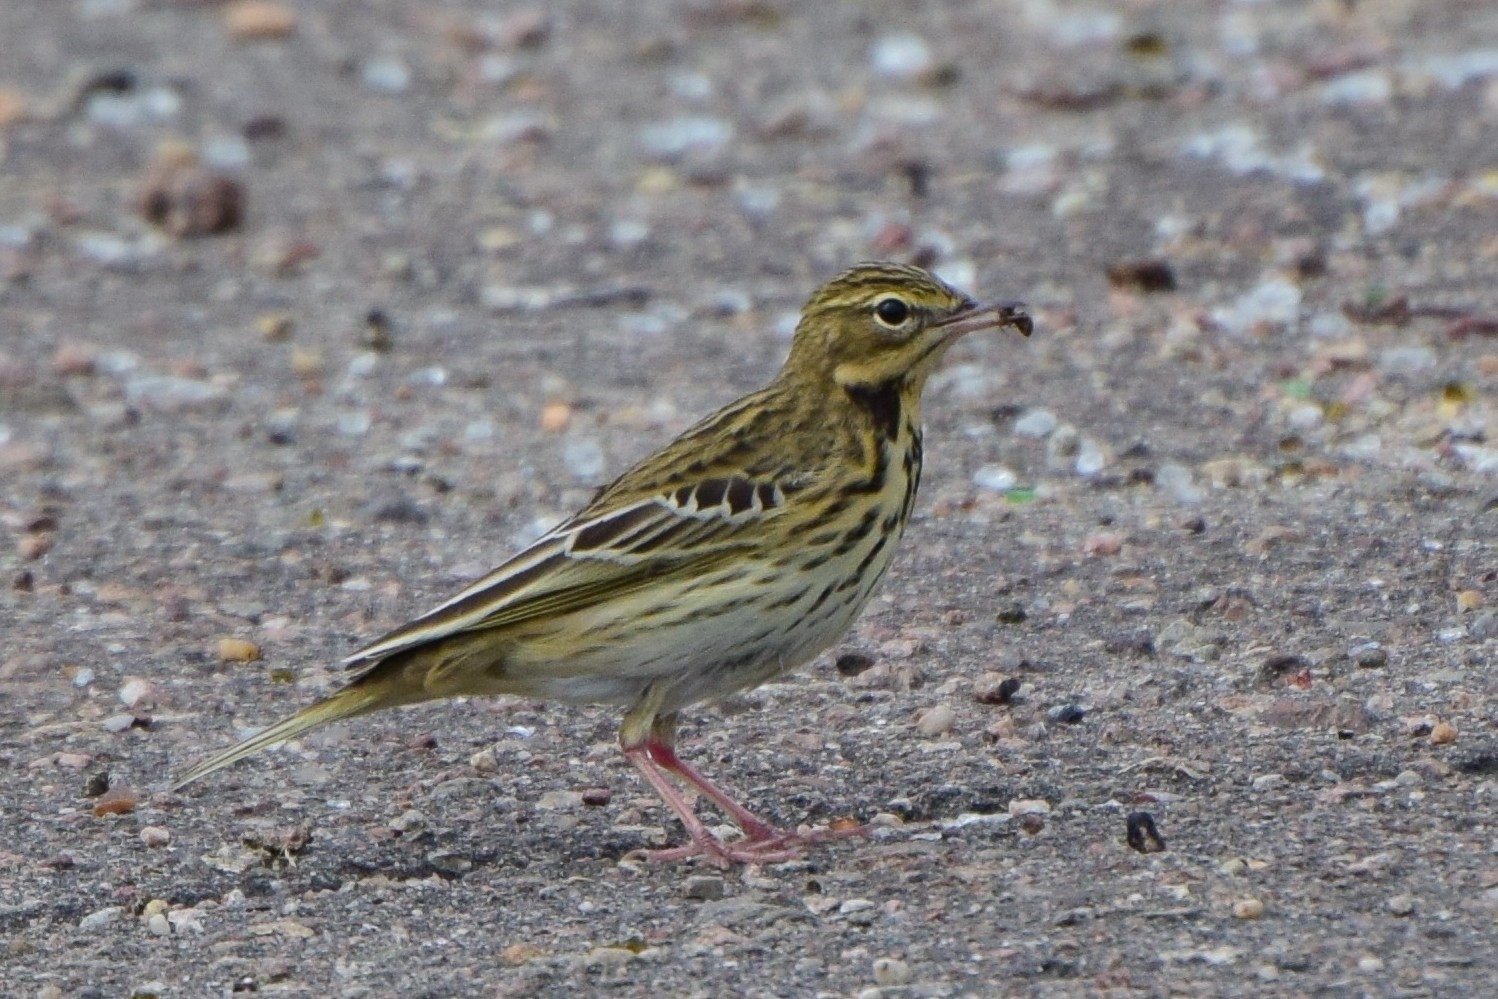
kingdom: Animalia
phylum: Chordata
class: Aves
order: Passeriformes
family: Motacillidae
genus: Anthus
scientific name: Anthus trivialis
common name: Tree pipit
